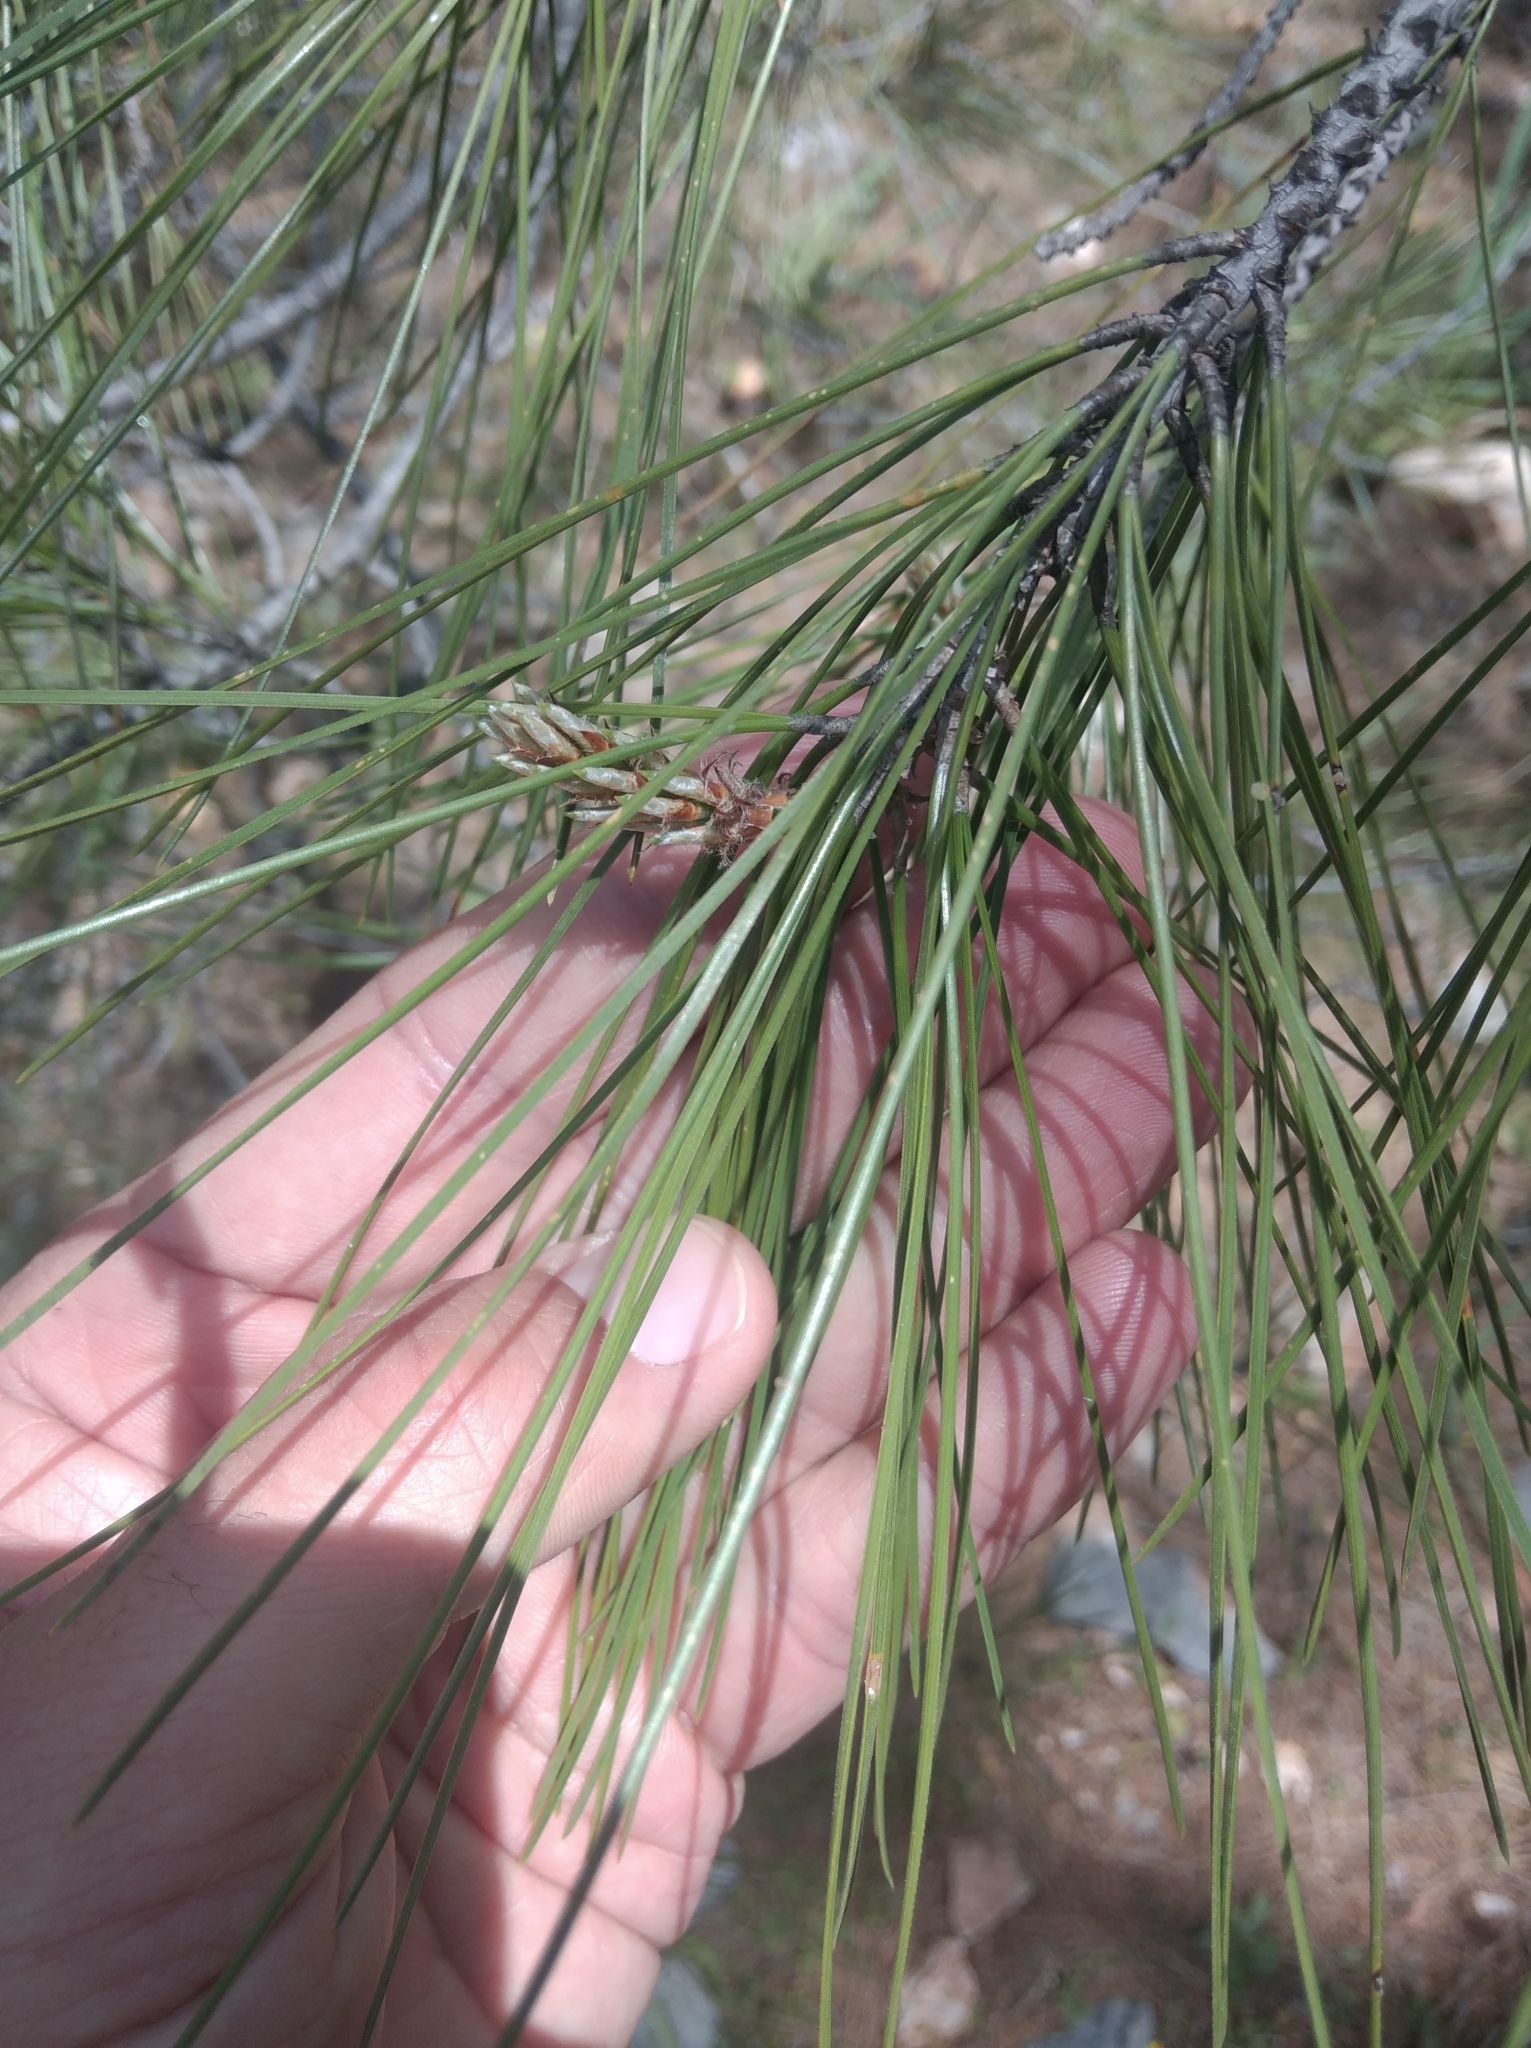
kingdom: Plantae
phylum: Tracheophyta
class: Pinopsida
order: Pinales
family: Pinaceae
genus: Pinus
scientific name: Pinus brutia
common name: Turkish pine
